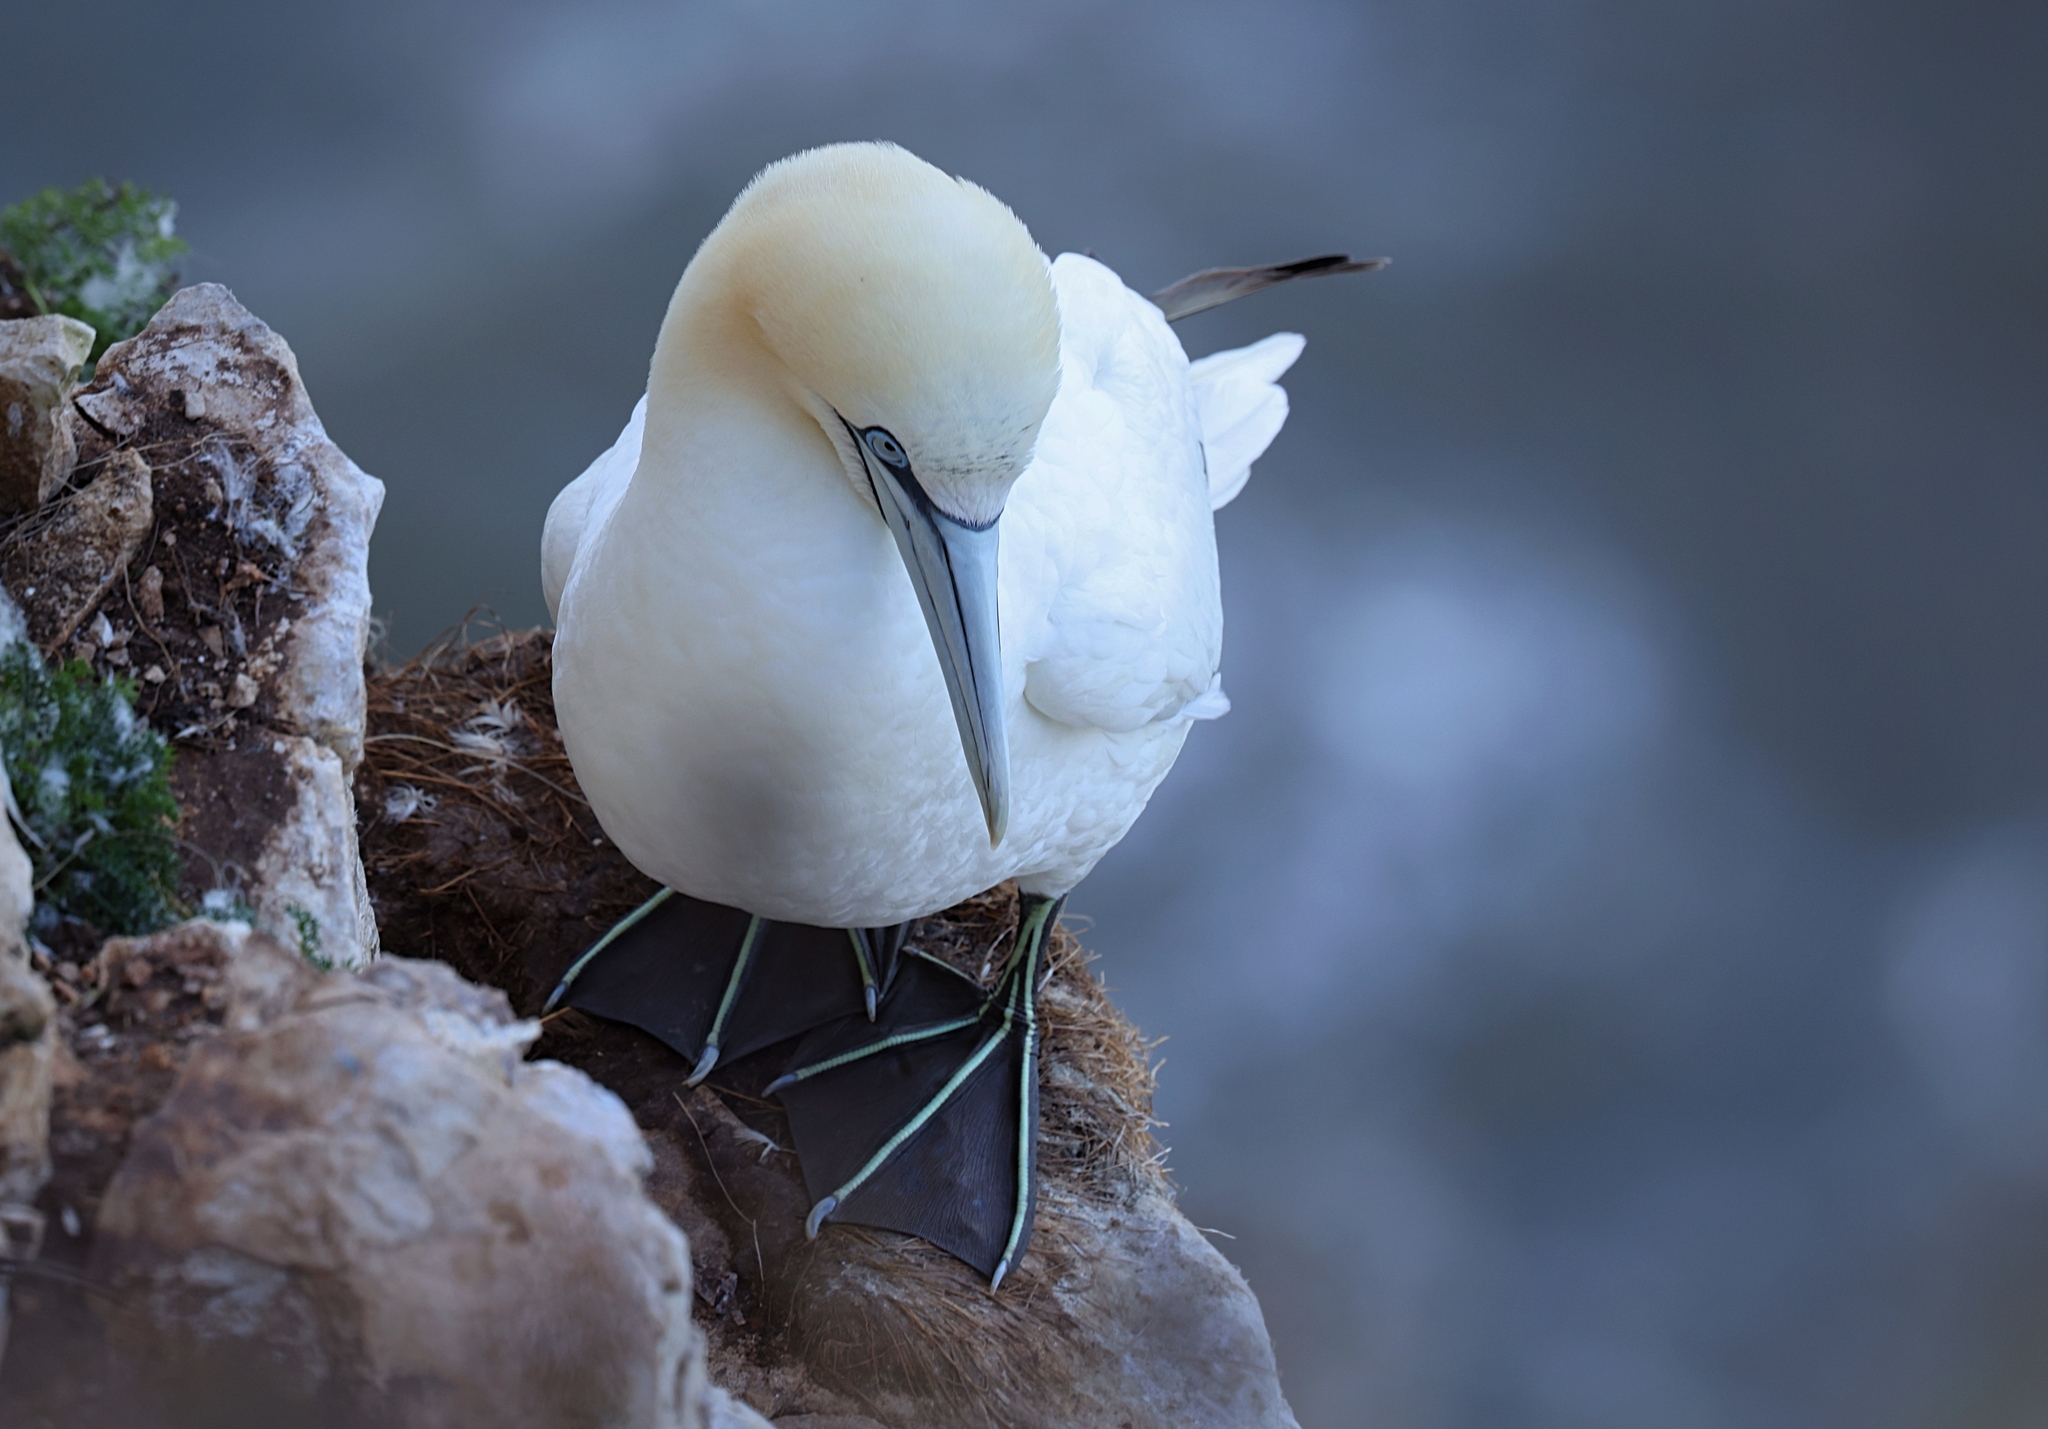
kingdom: Animalia
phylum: Chordata
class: Aves
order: Suliformes
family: Sulidae
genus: Morus
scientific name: Morus bassanus
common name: Northern gannet
